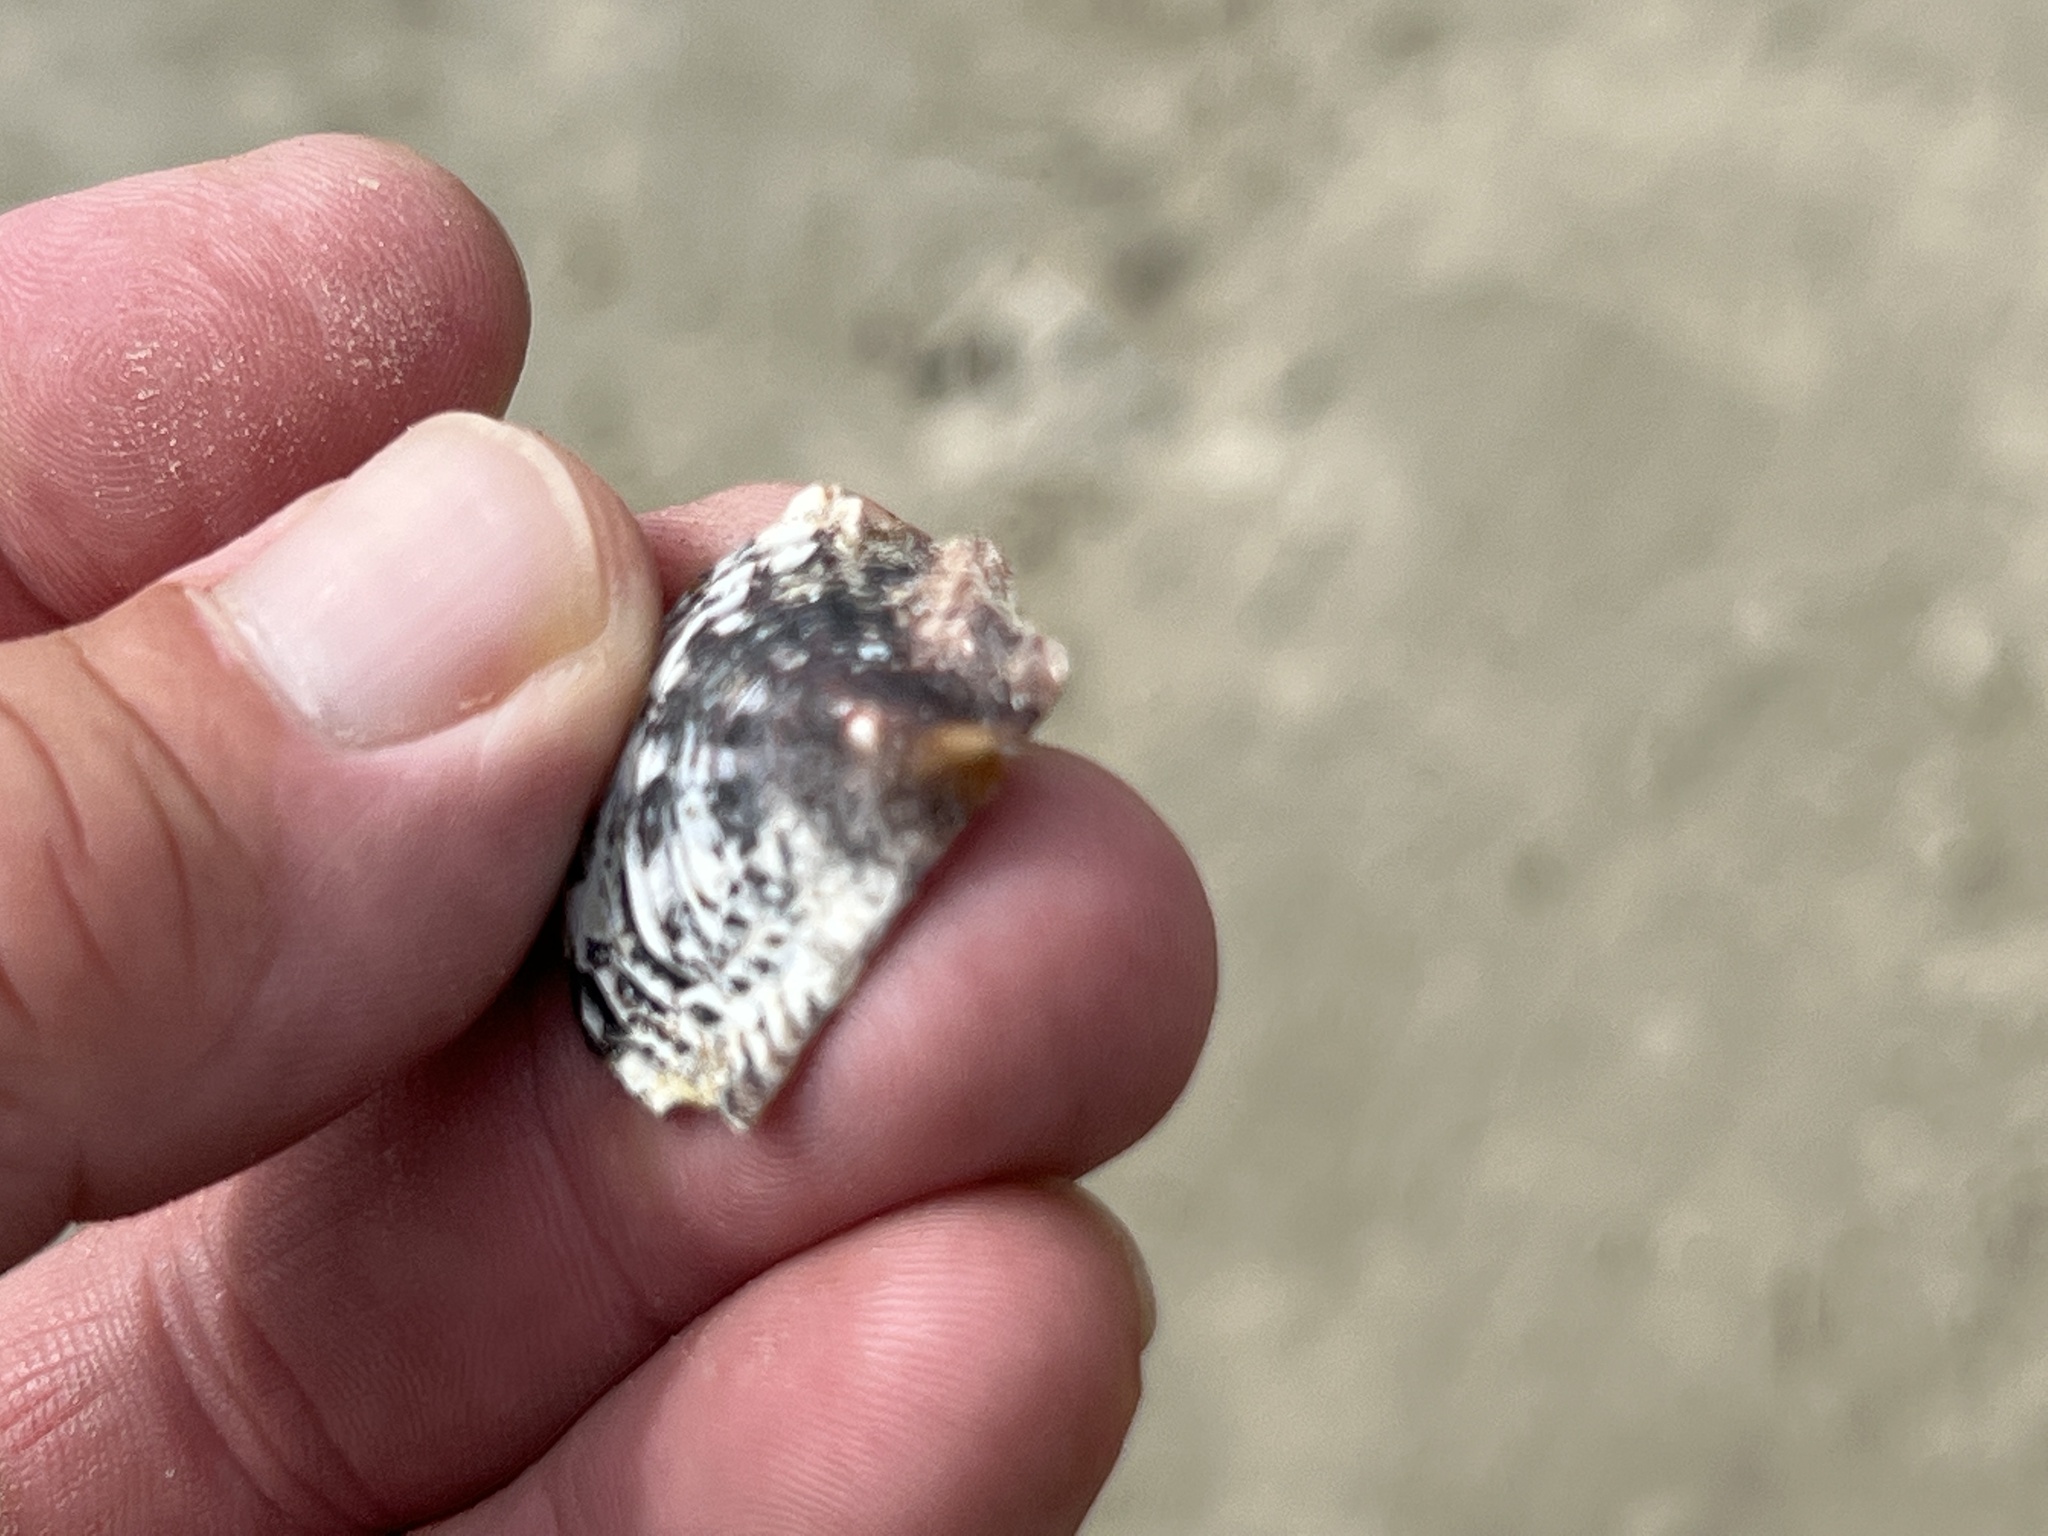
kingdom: Animalia
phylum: Mollusca
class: Bivalvia
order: Arcida
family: Arcidae
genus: Arca
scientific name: Arca zebra
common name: Atlantic turkey wing
